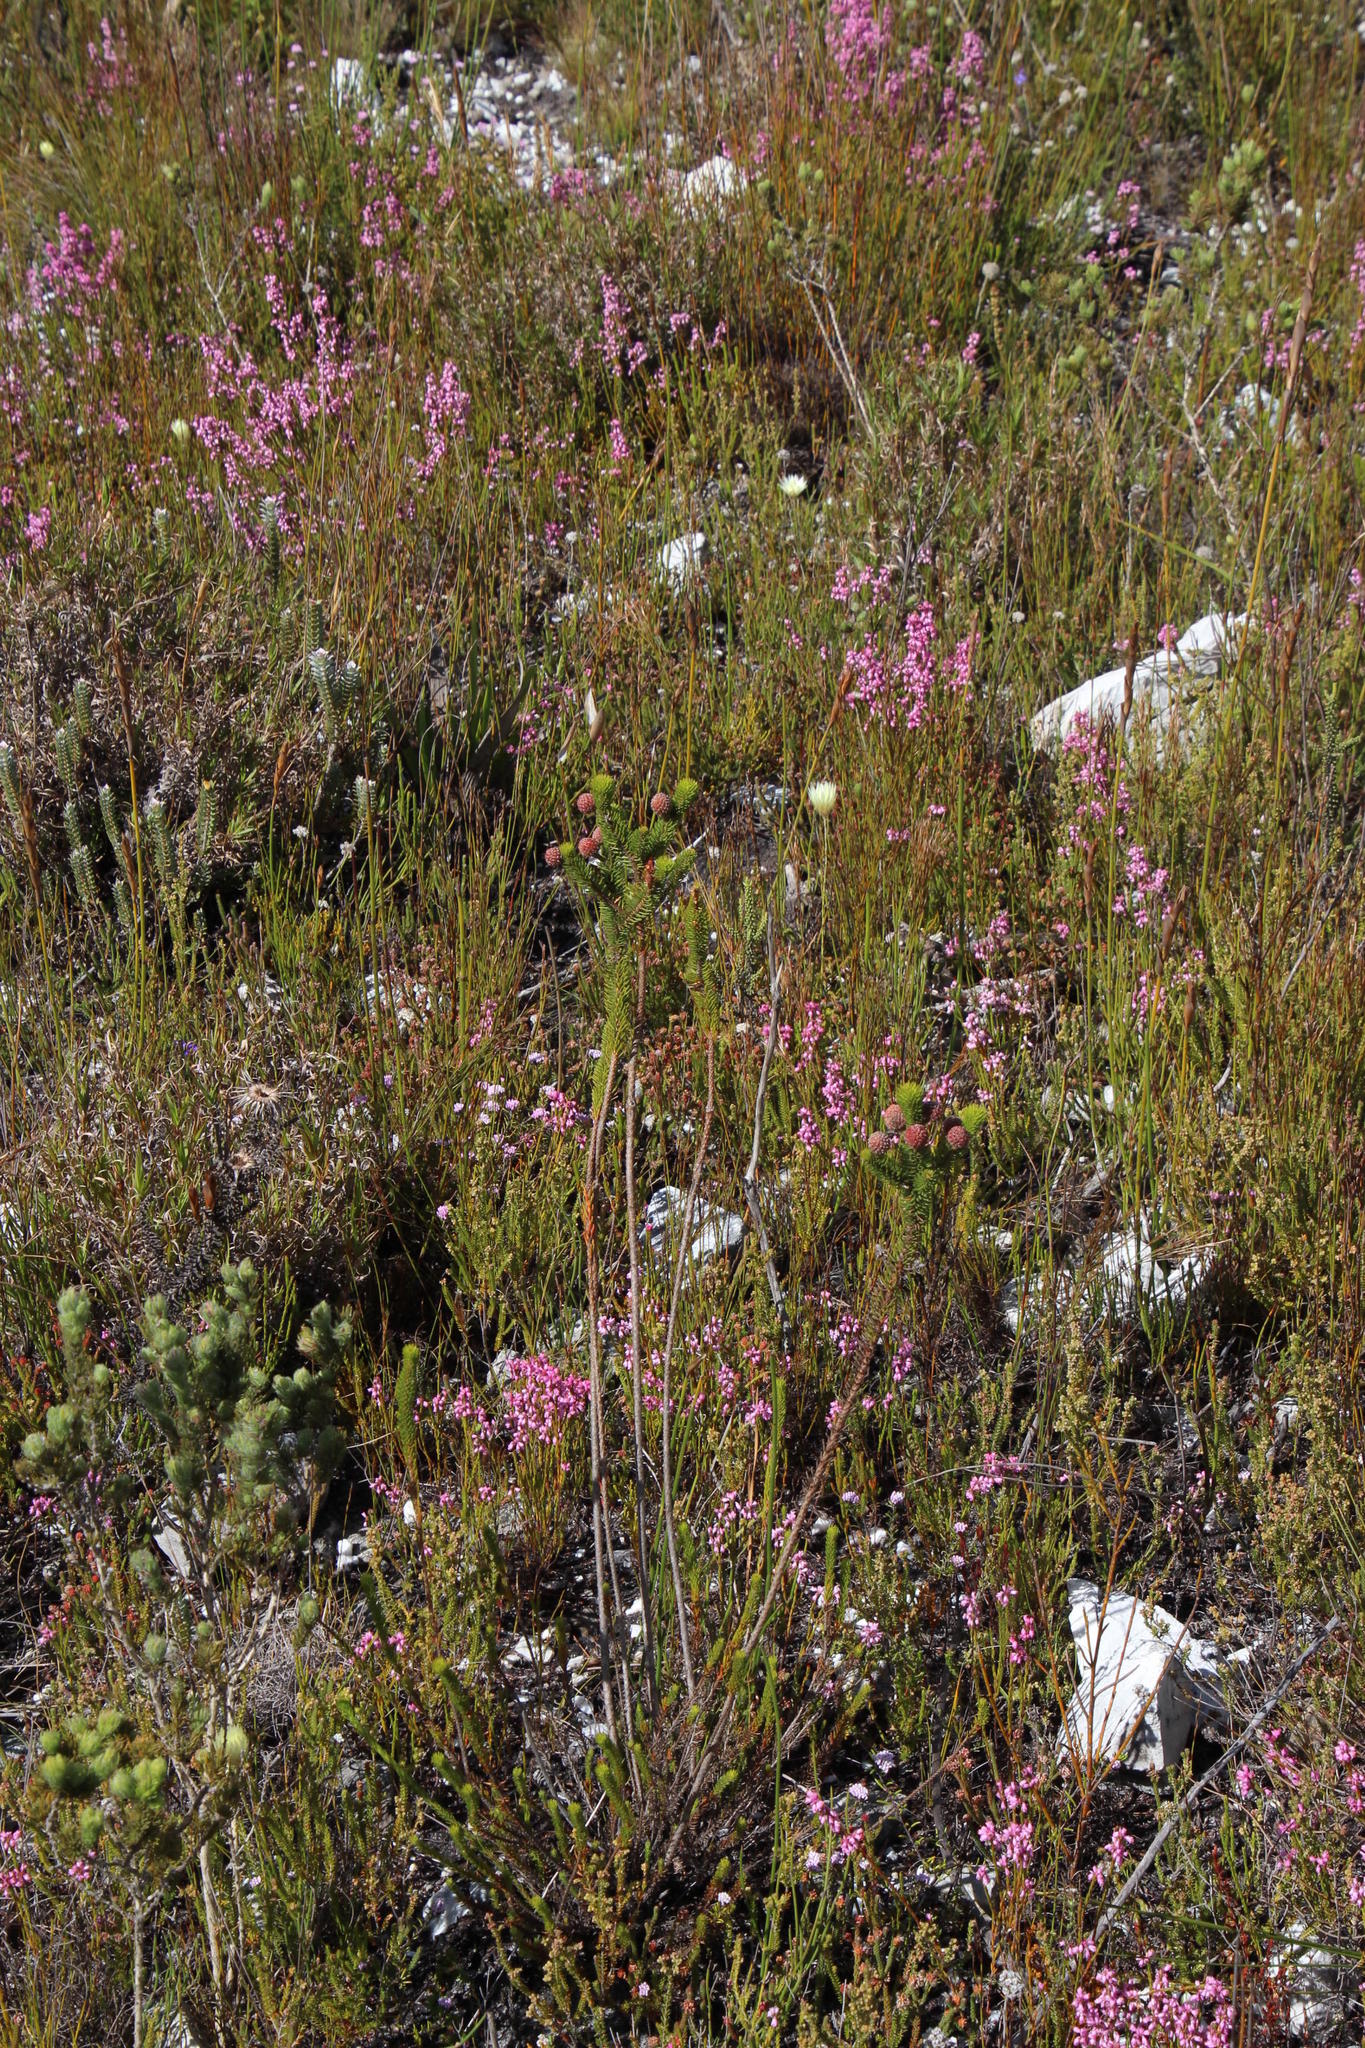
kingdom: Plantae
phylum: Tracheophyta
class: Magnoliopsida
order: Bruniales
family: Bruniaceae
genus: Berzelia
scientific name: Berzelia rubra
